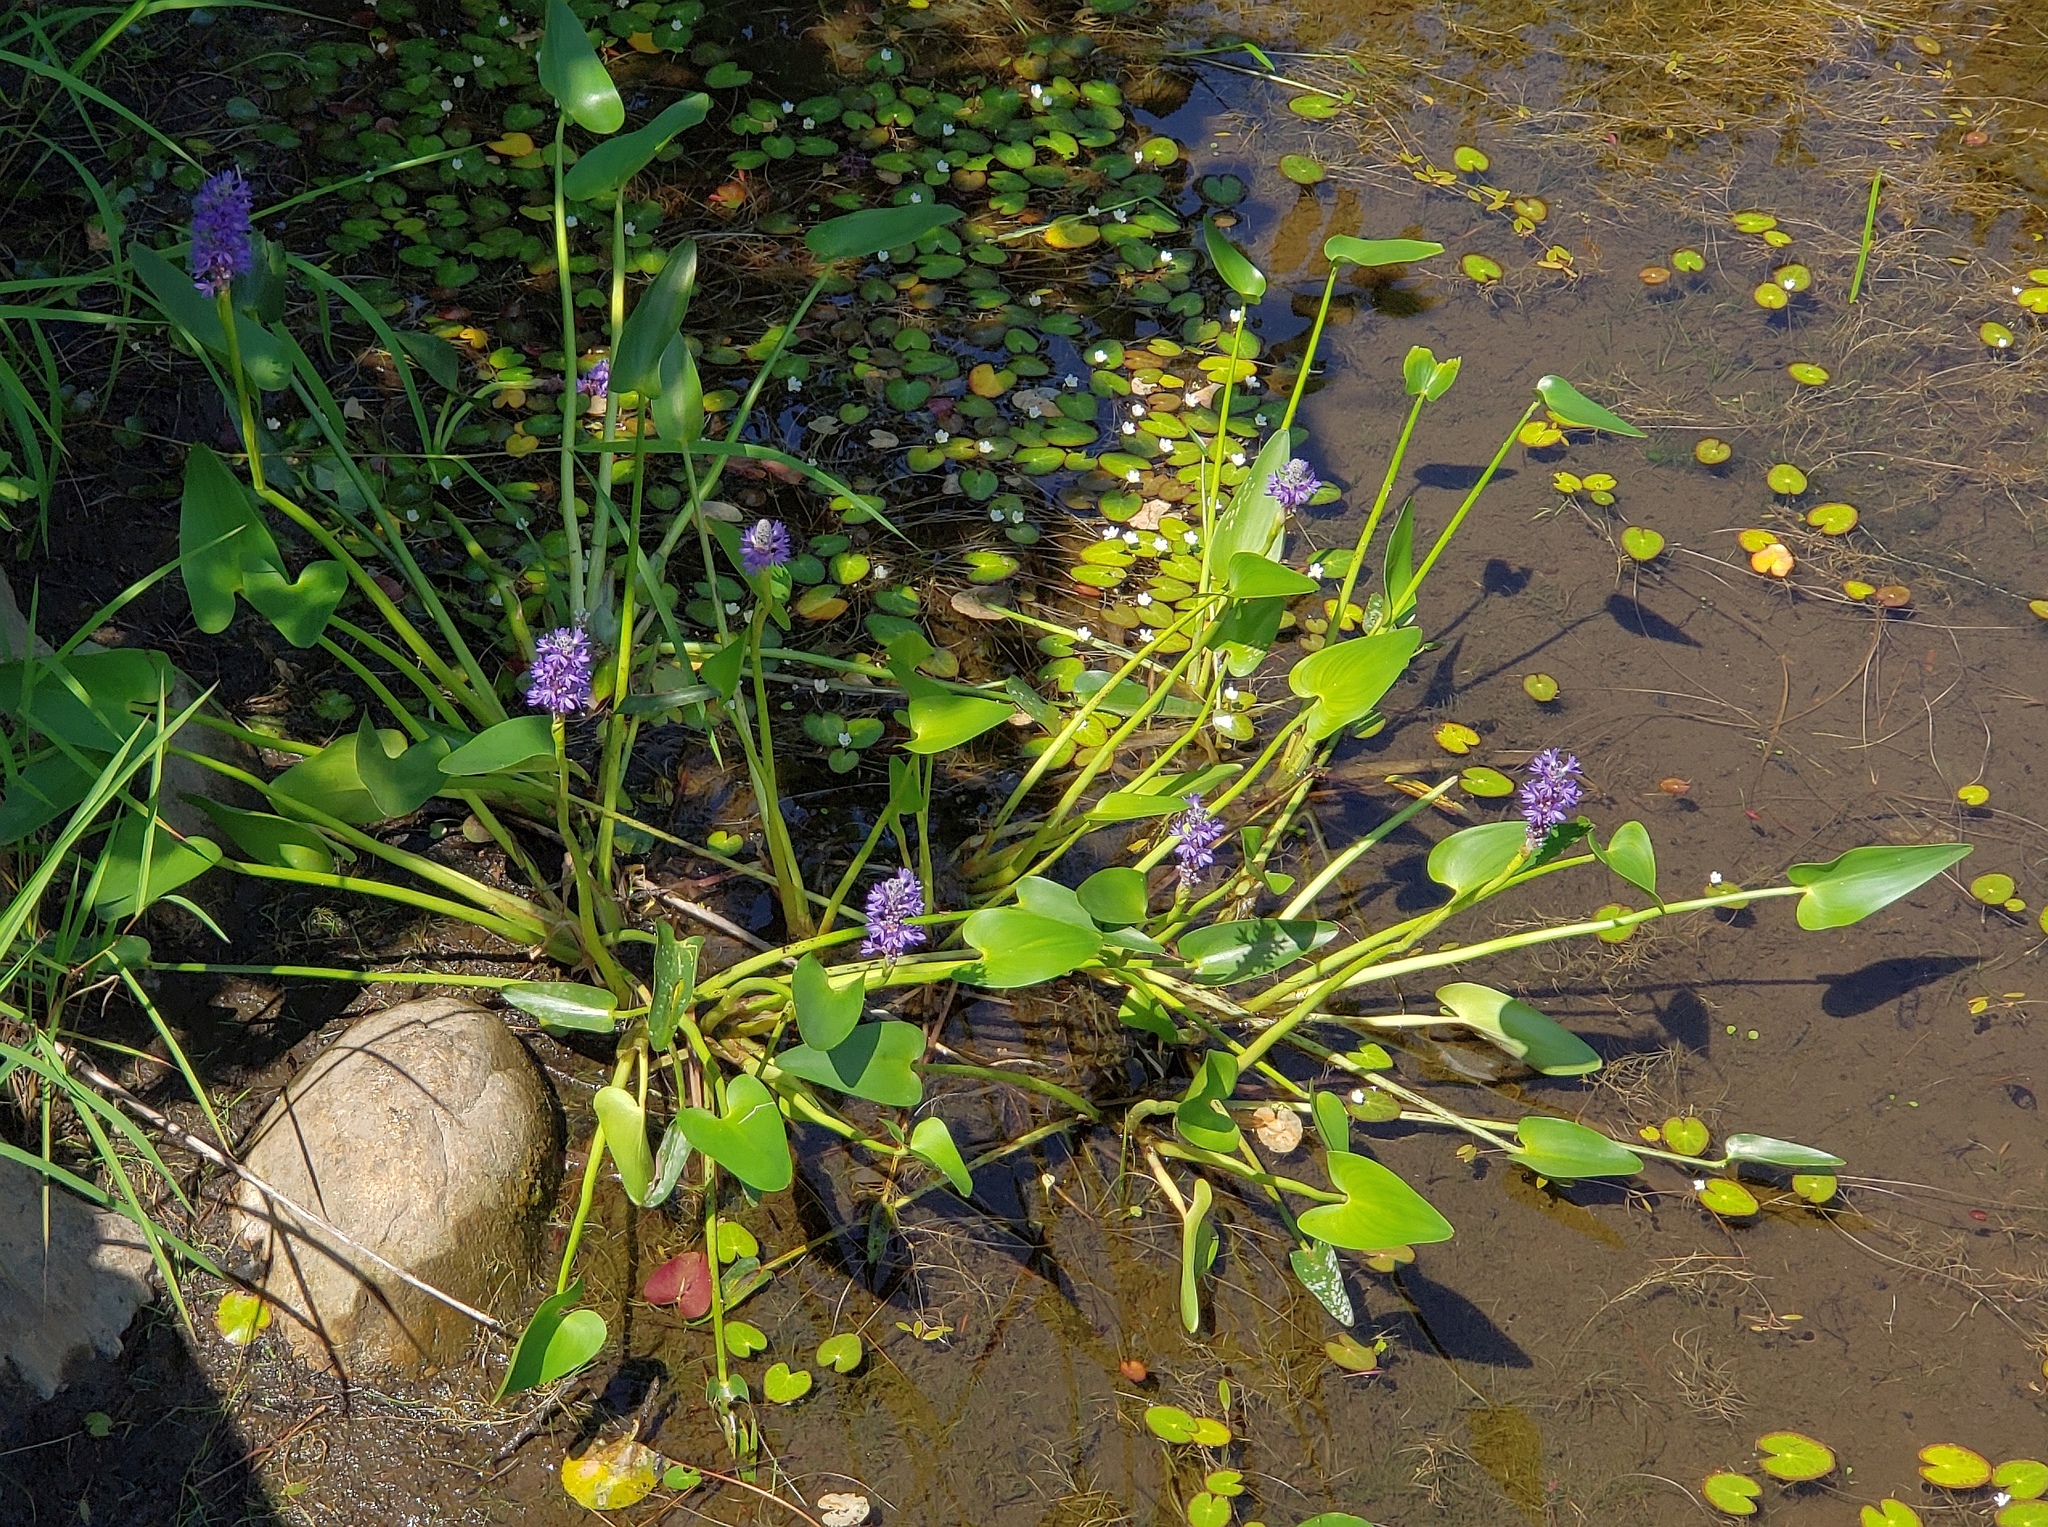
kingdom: Plantae
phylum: Tracheophyta
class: Liliopsida
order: Commelinales
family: Pontederiaceae
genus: Pontederia
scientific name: Pontederia cordata
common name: Pickerelweed
